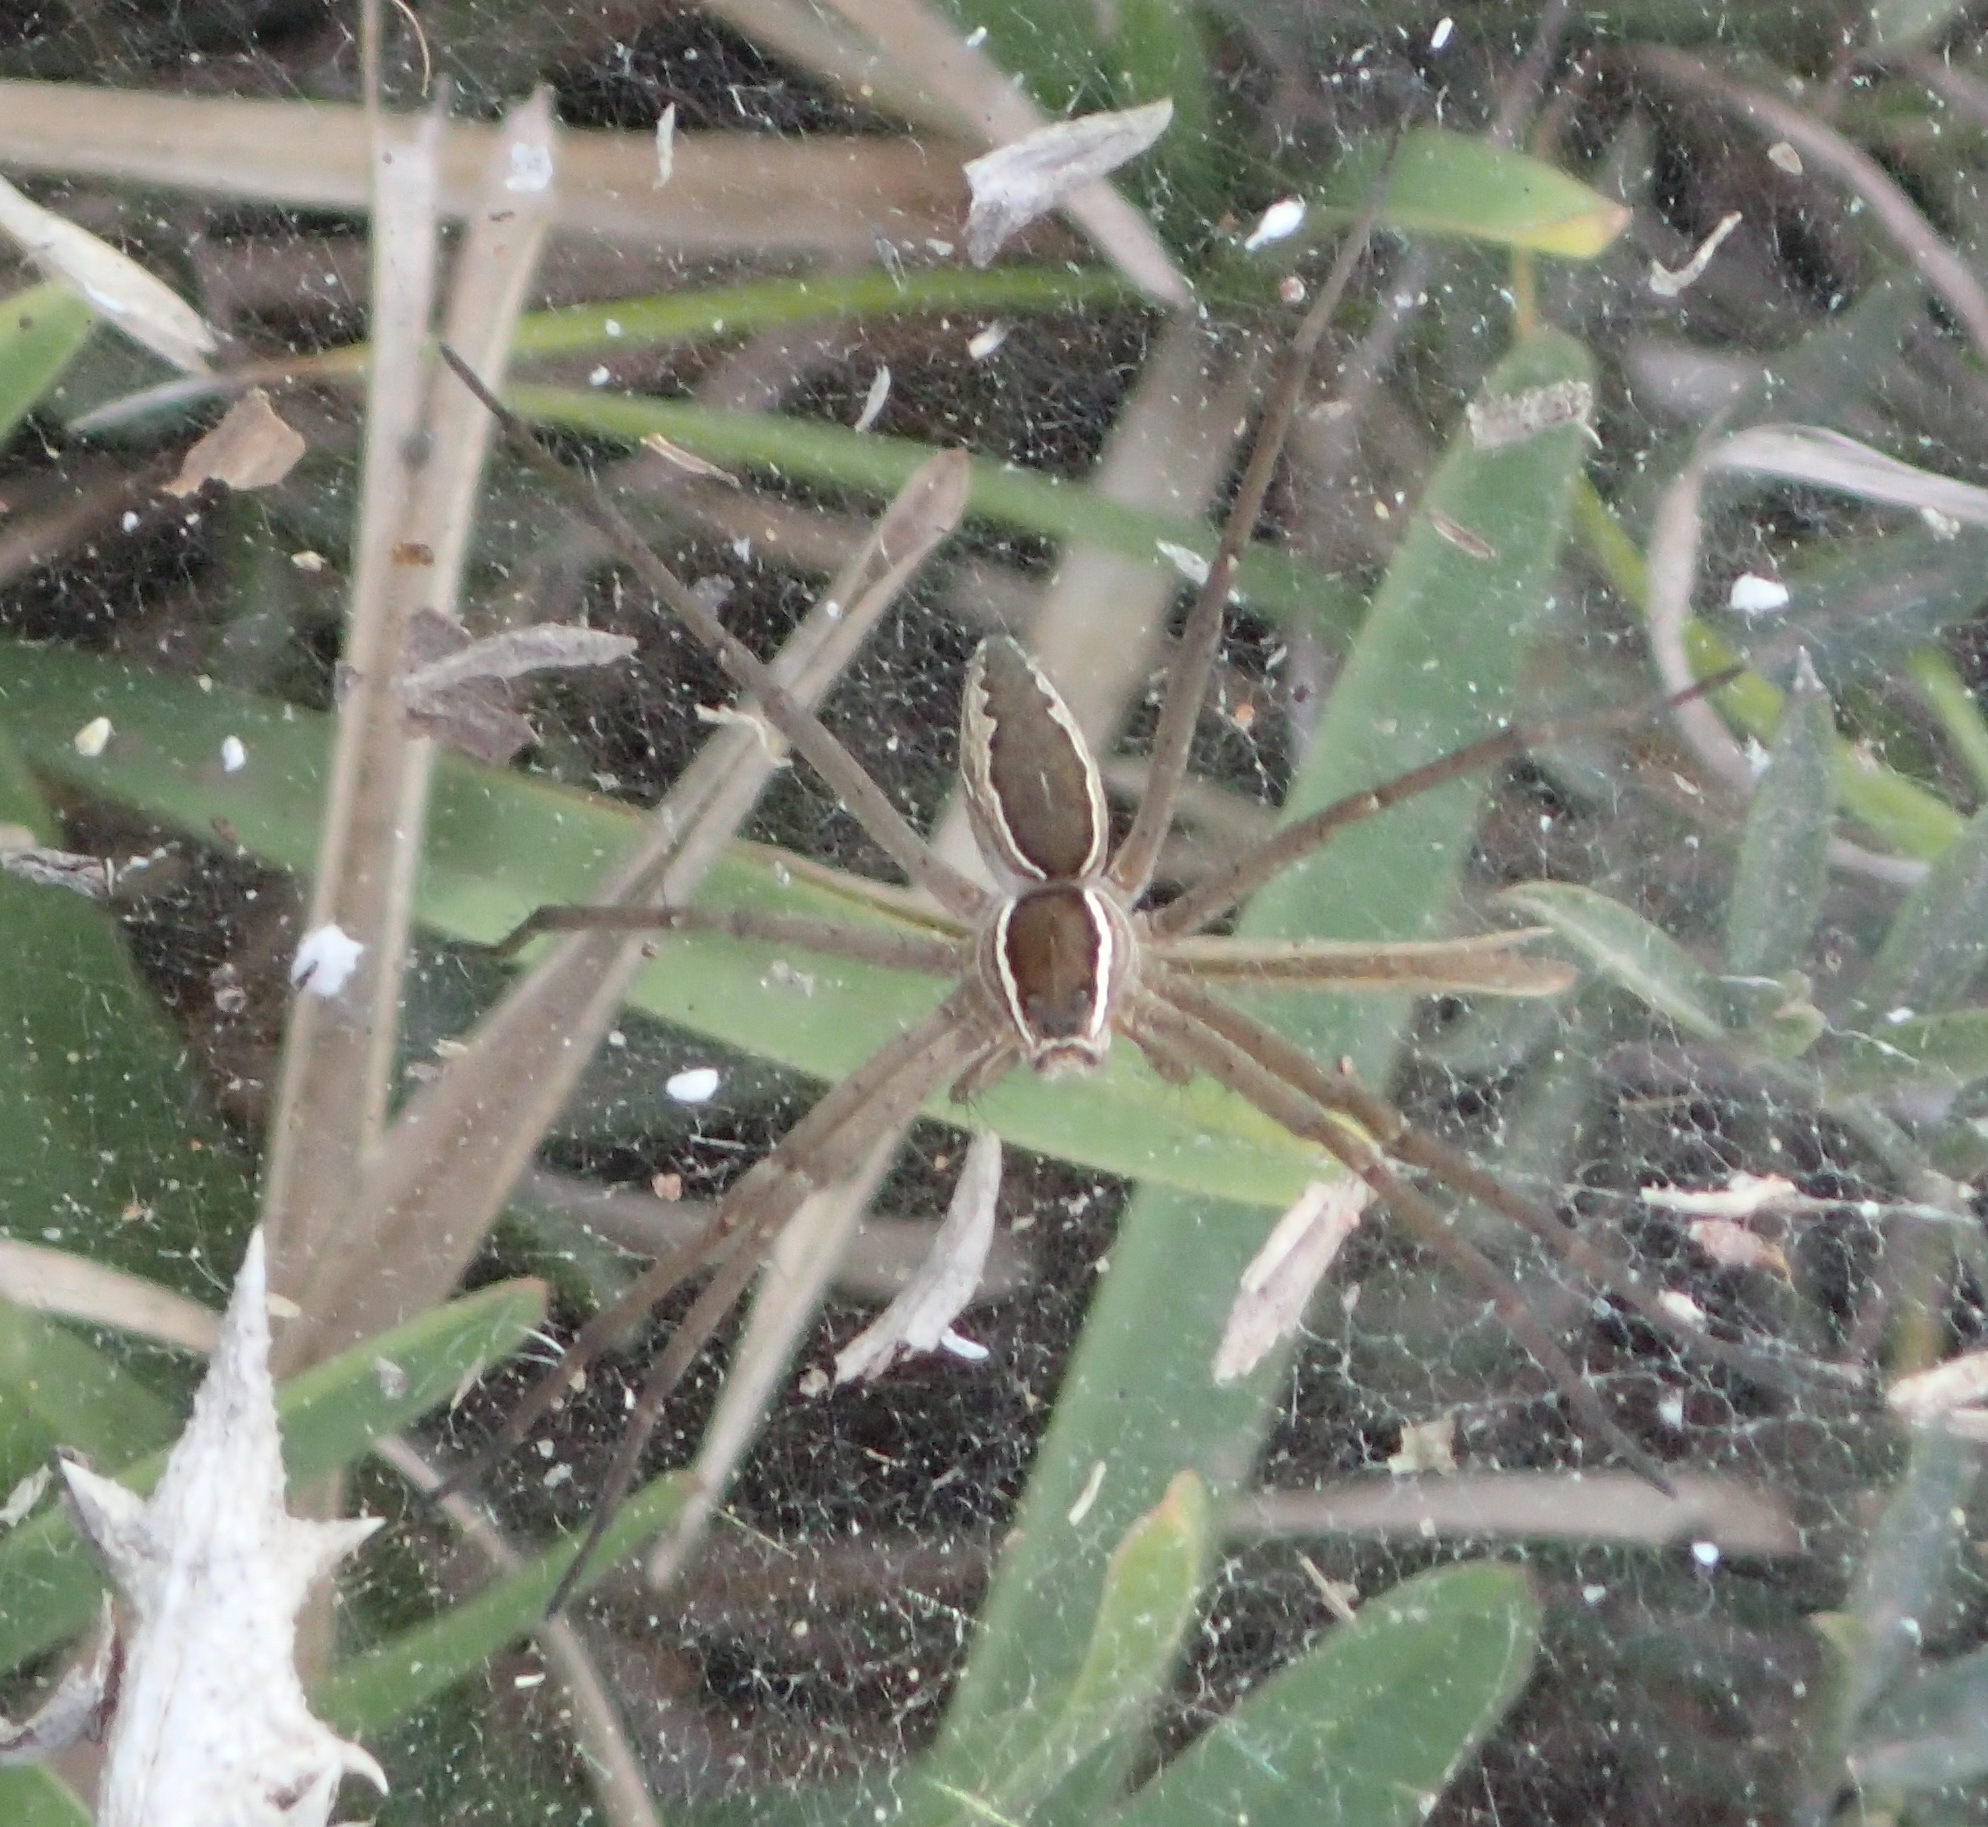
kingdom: Animalia
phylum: Arthropoda
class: Arachnida
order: Araneae
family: Pisauridae
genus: Euprosthenopsis
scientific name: Euprosthenopsis pulchella
